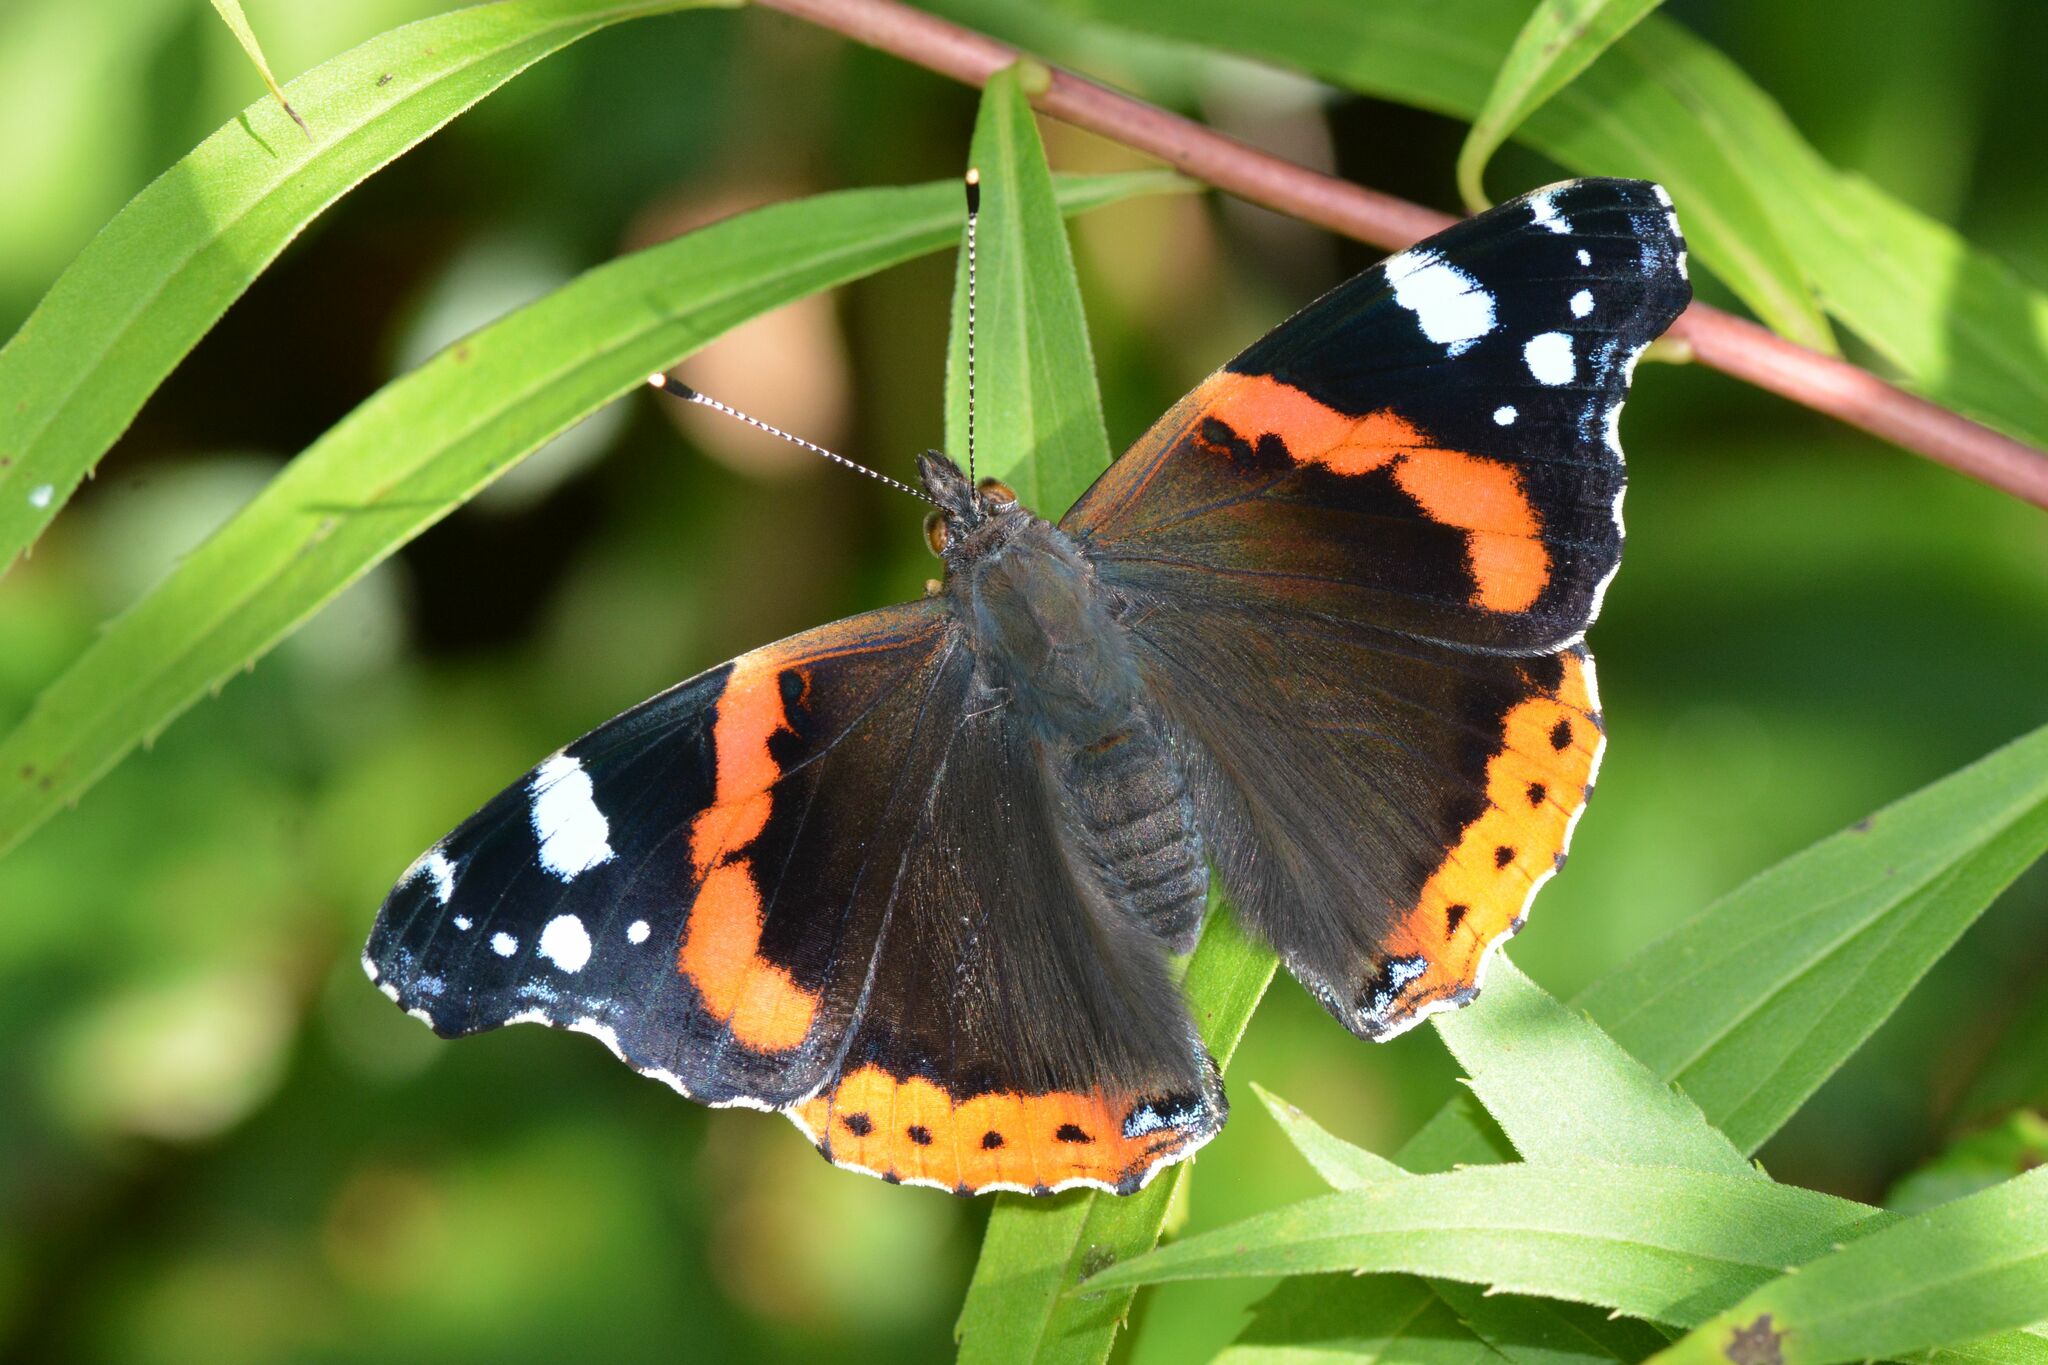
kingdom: Animalia
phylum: Arthropoda
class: Insecta
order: Lepidoptera
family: Nymphalidae
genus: Vanessa
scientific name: Vanessa atalanta
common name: Red admiral
